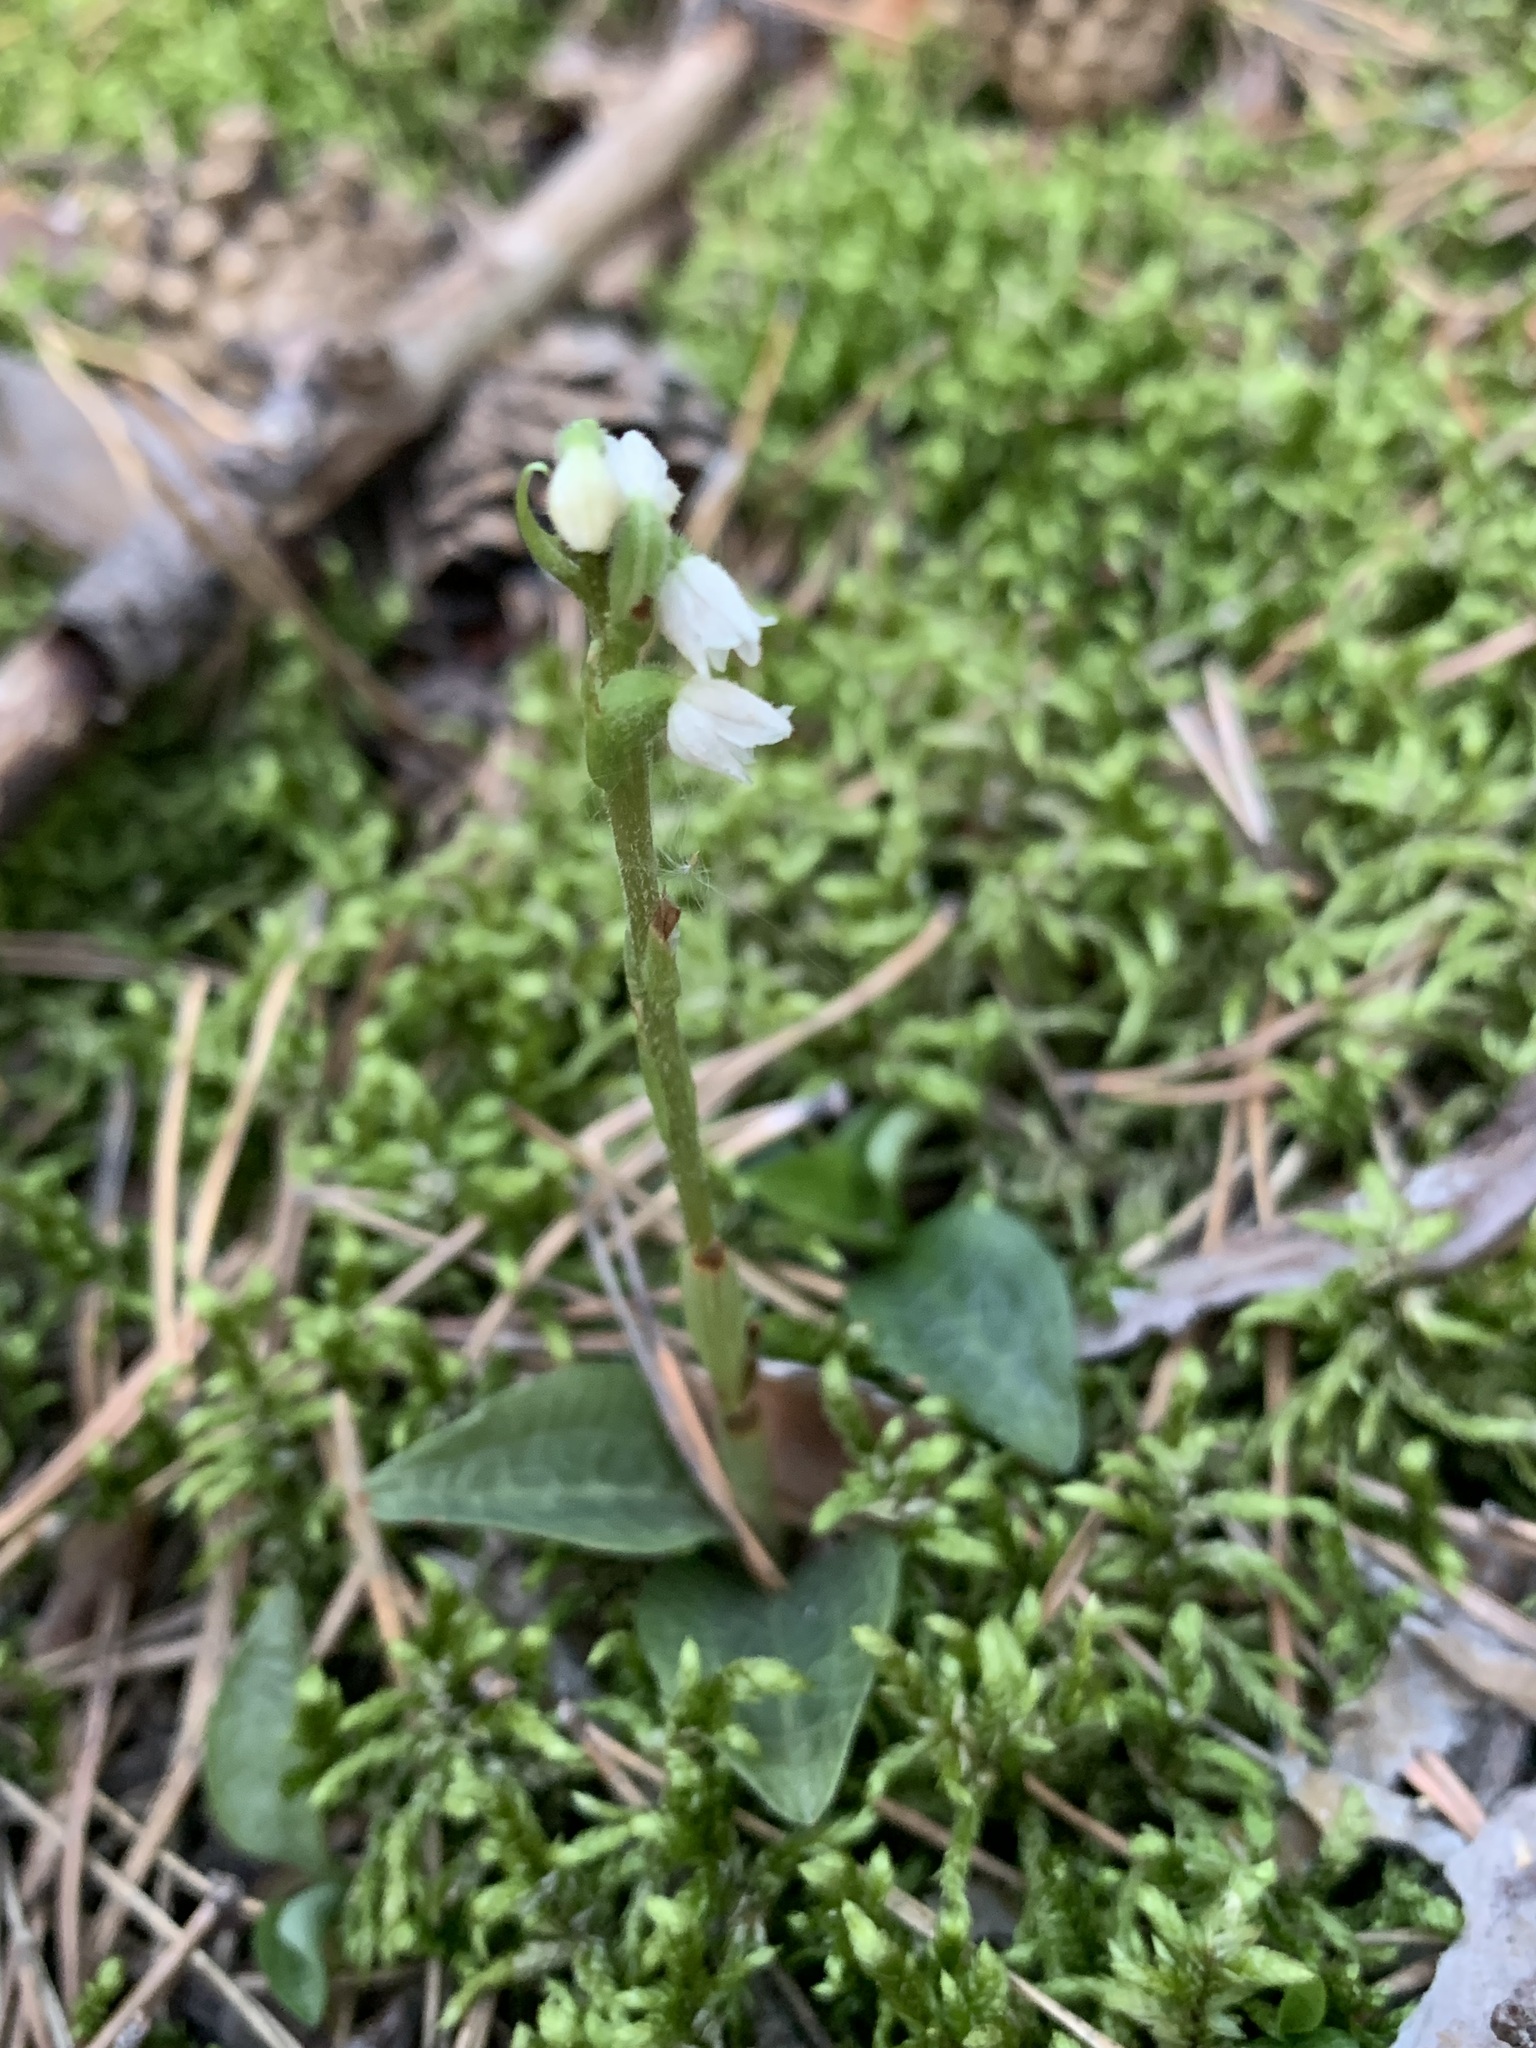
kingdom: Plantae
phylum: Tracheophyta
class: Liliopsida
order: Asparagales
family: Orchidaceae
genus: Goodyera
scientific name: Goodyera repens
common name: Creeping lady's-tresses
